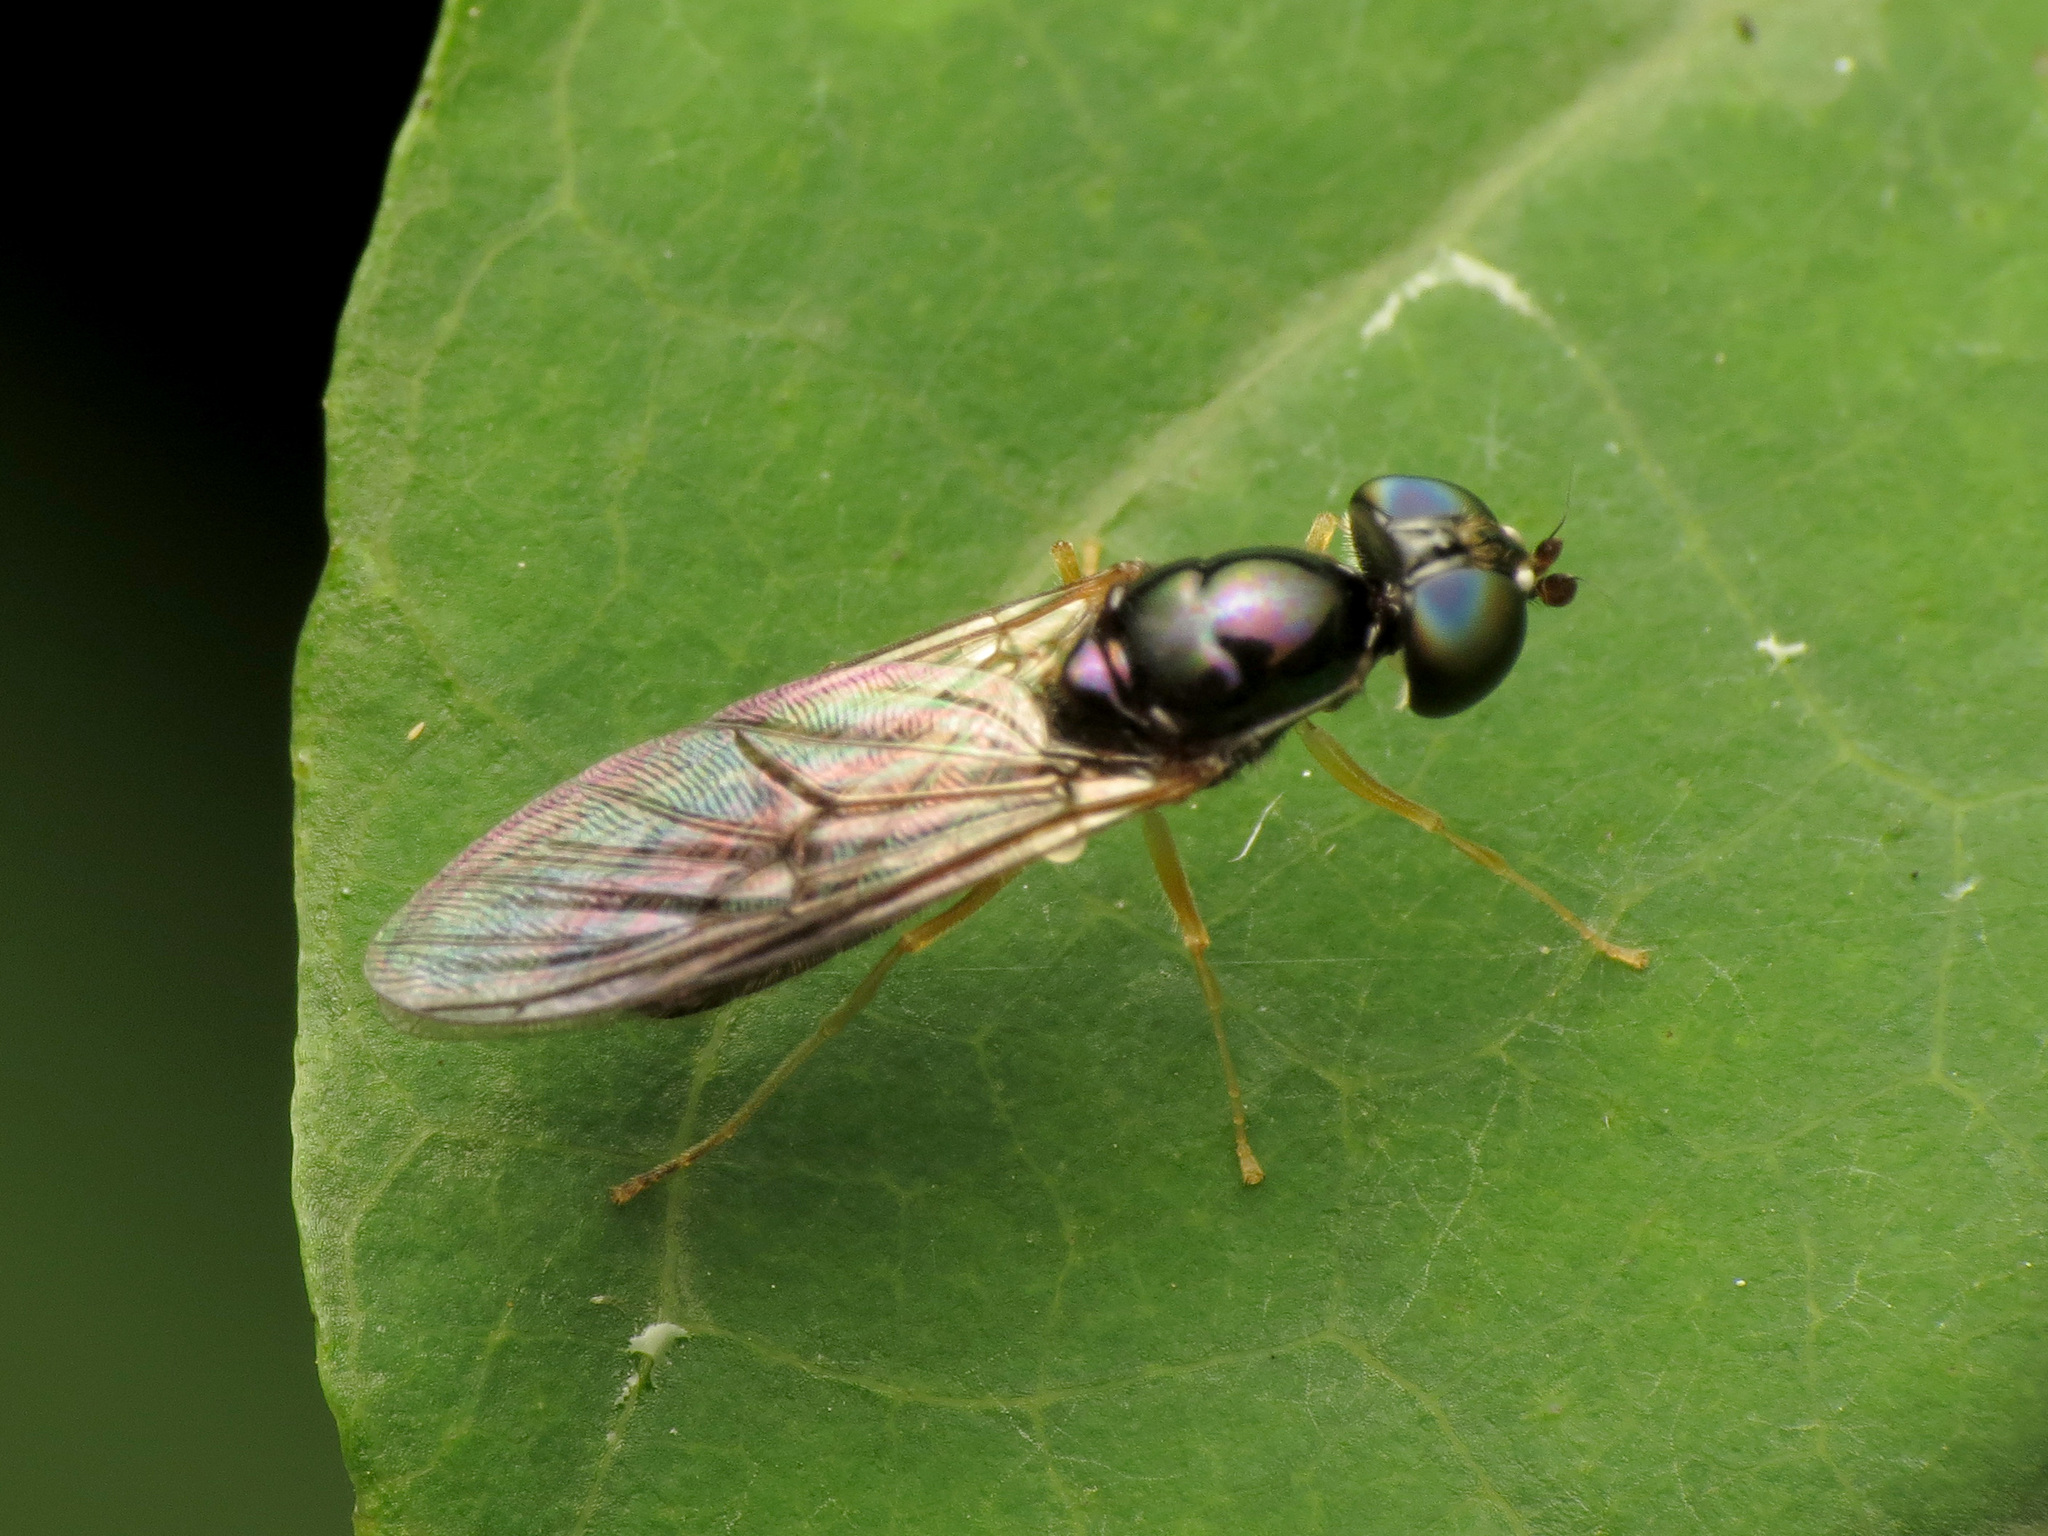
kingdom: Animalia
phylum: Arthropoda
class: Insecta
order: Diptera
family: Stratiomyidae
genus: Sargus
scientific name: Sargus decorus
